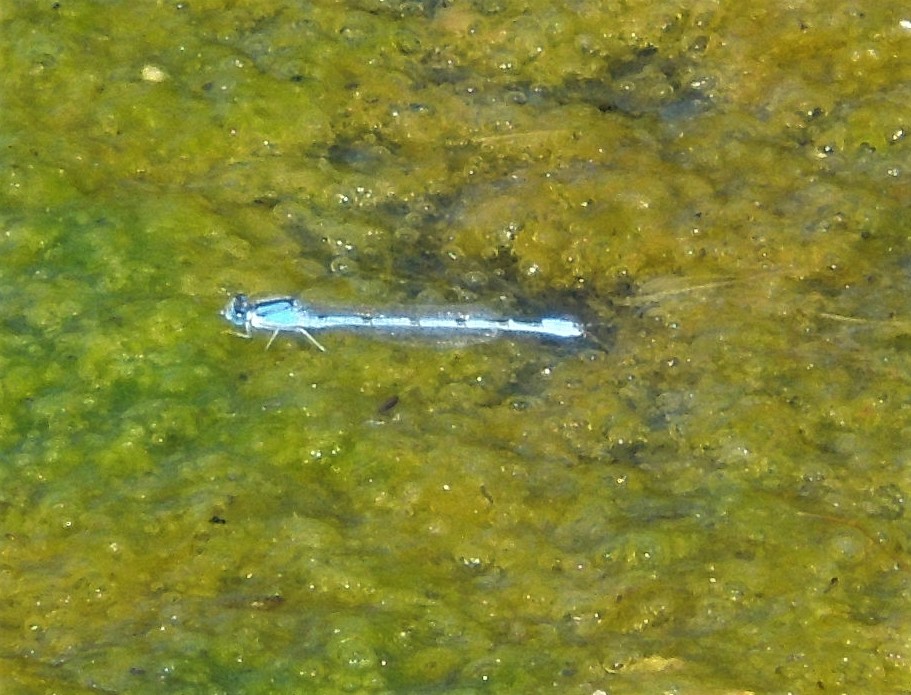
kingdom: Animalia
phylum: Arthropoda
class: Insecta
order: Odonata
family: Coenagrionidae
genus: Enallagma
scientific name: Enallagma
